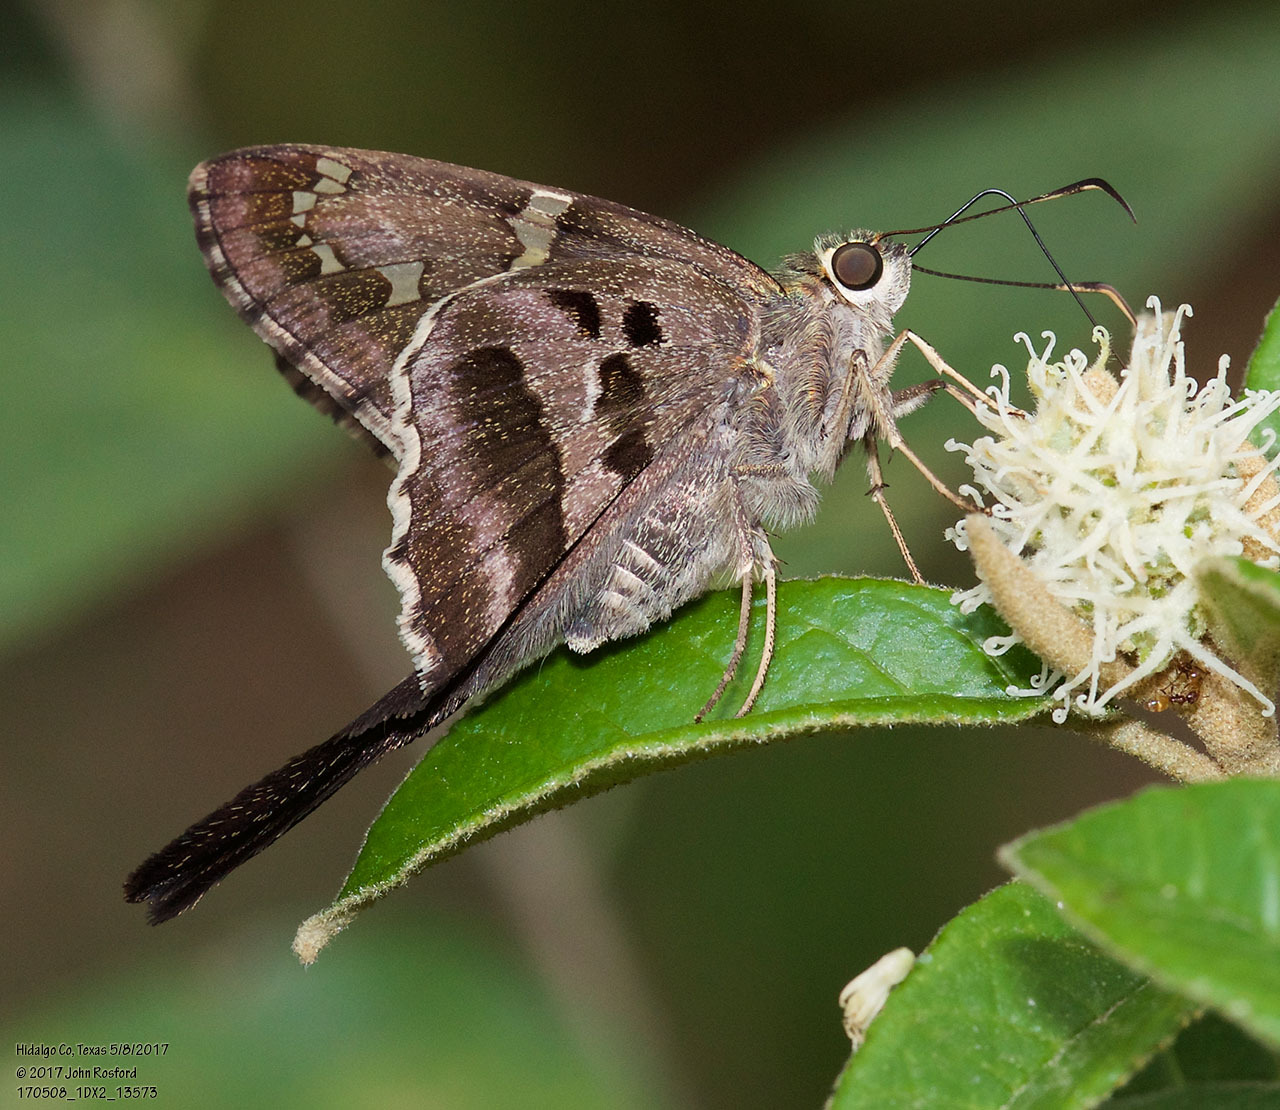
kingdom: Animalia
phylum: Arthropoda
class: Insecta
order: Lepidoptera
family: Hesperiidae
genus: Urbanus
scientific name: Urbanus proteus
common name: Long-tailed skipper
